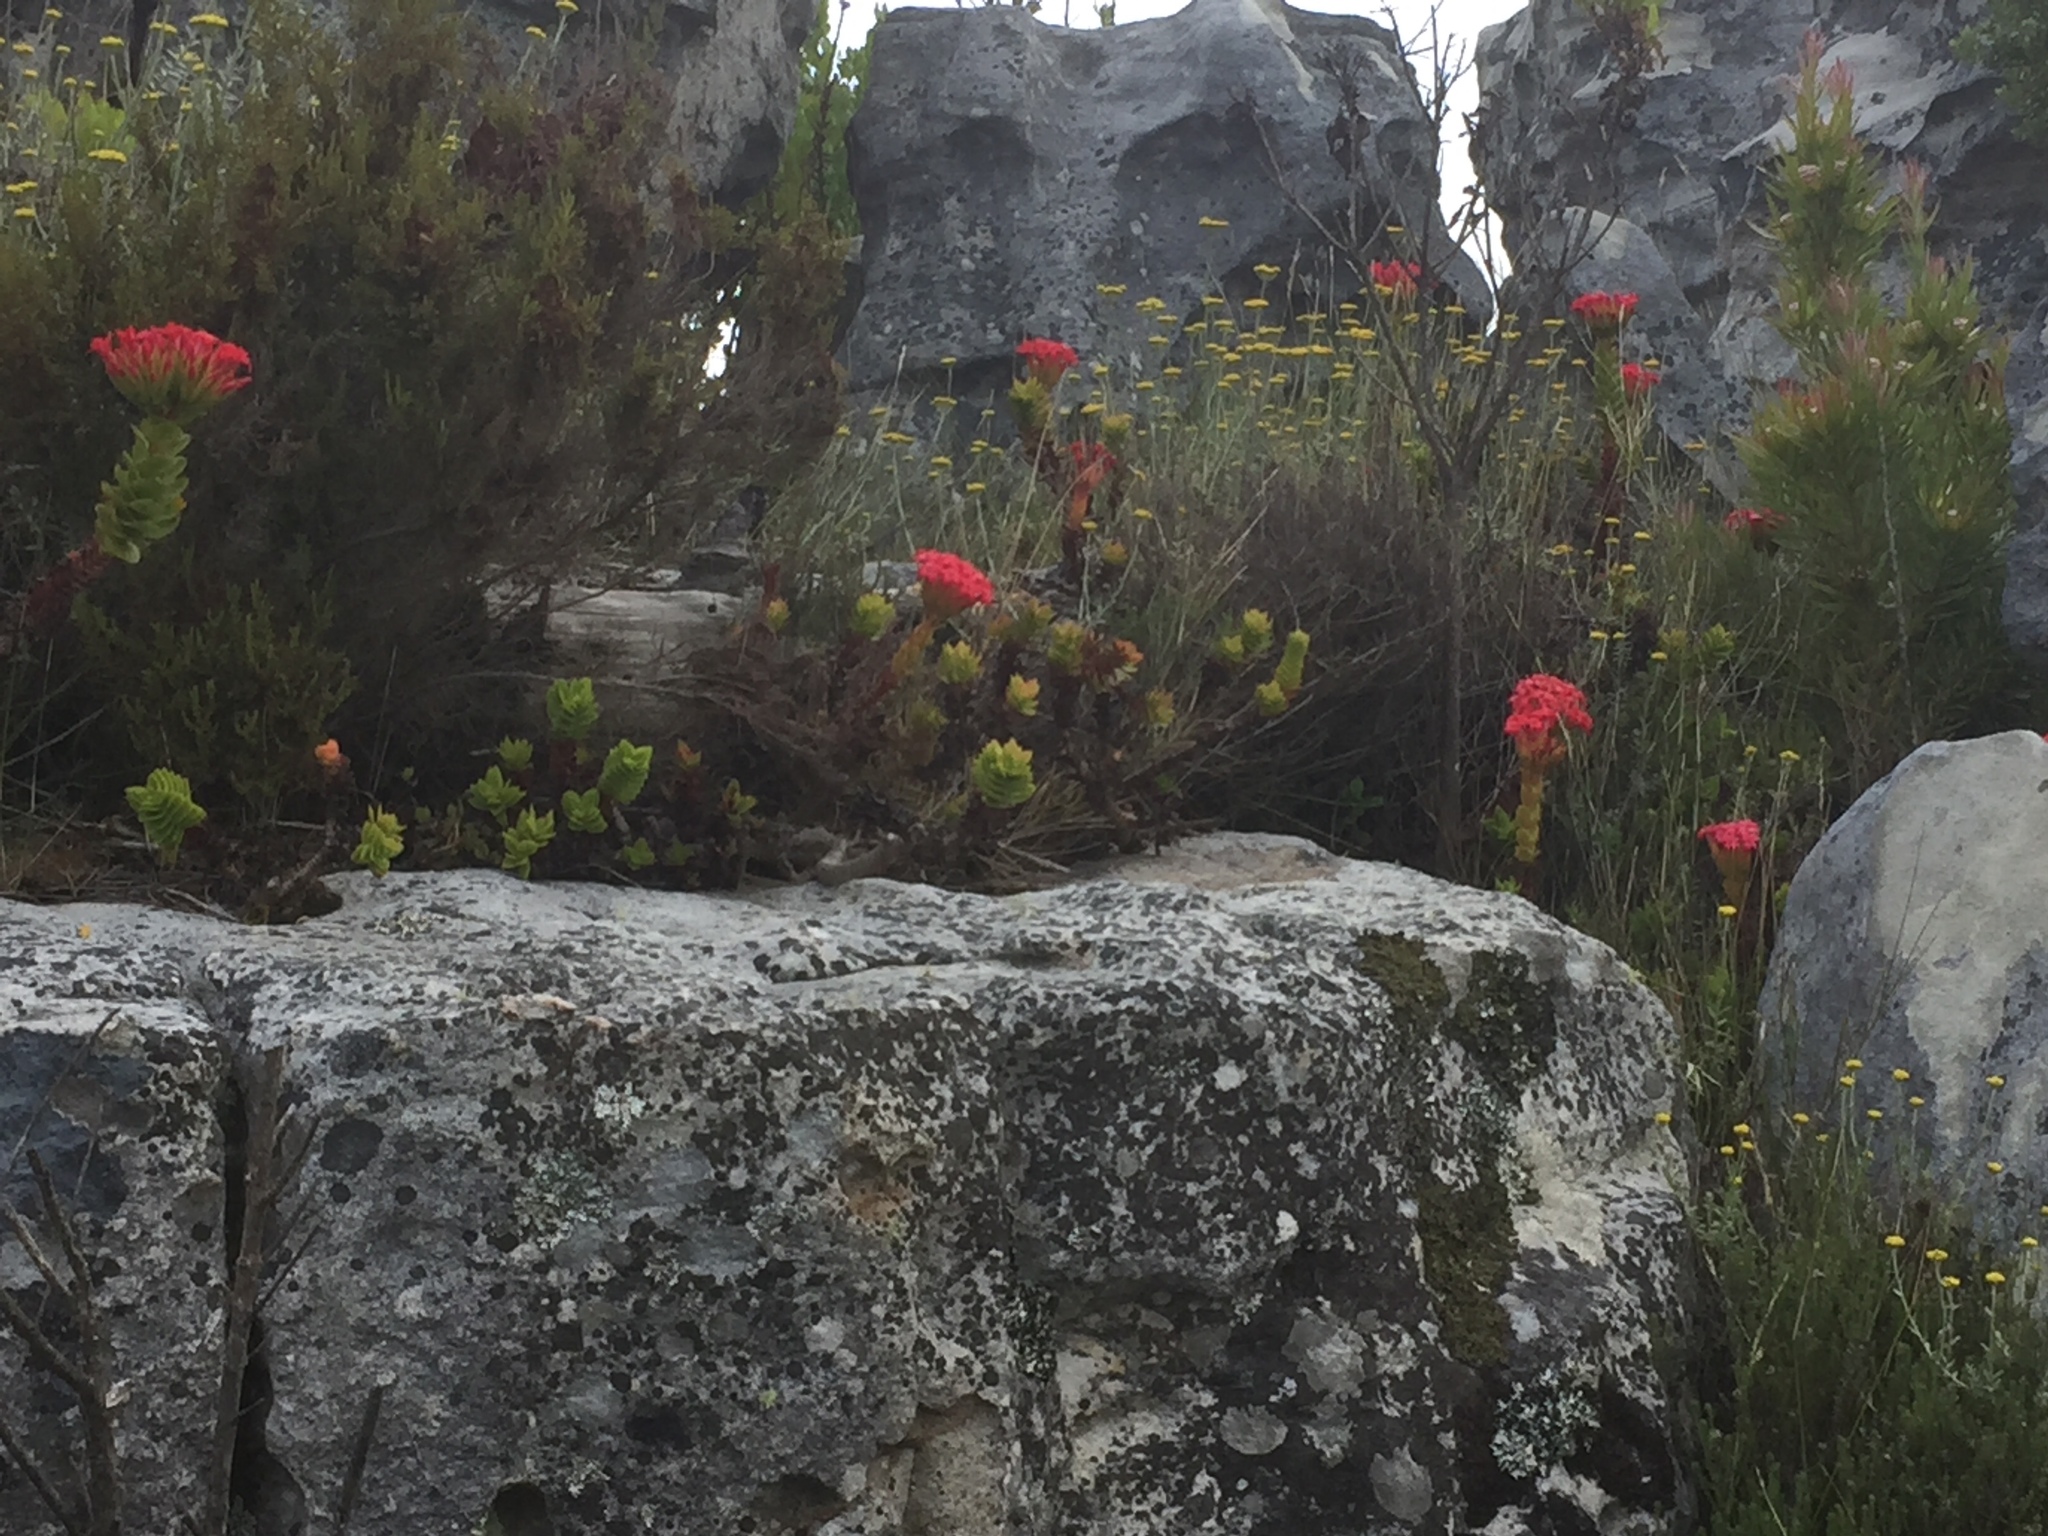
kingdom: Plantae
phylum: Tracheophyta
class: Magnoliopsida
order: Saxifragales
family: Crassulaceae
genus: Crassula
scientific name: Crassula coccinea
